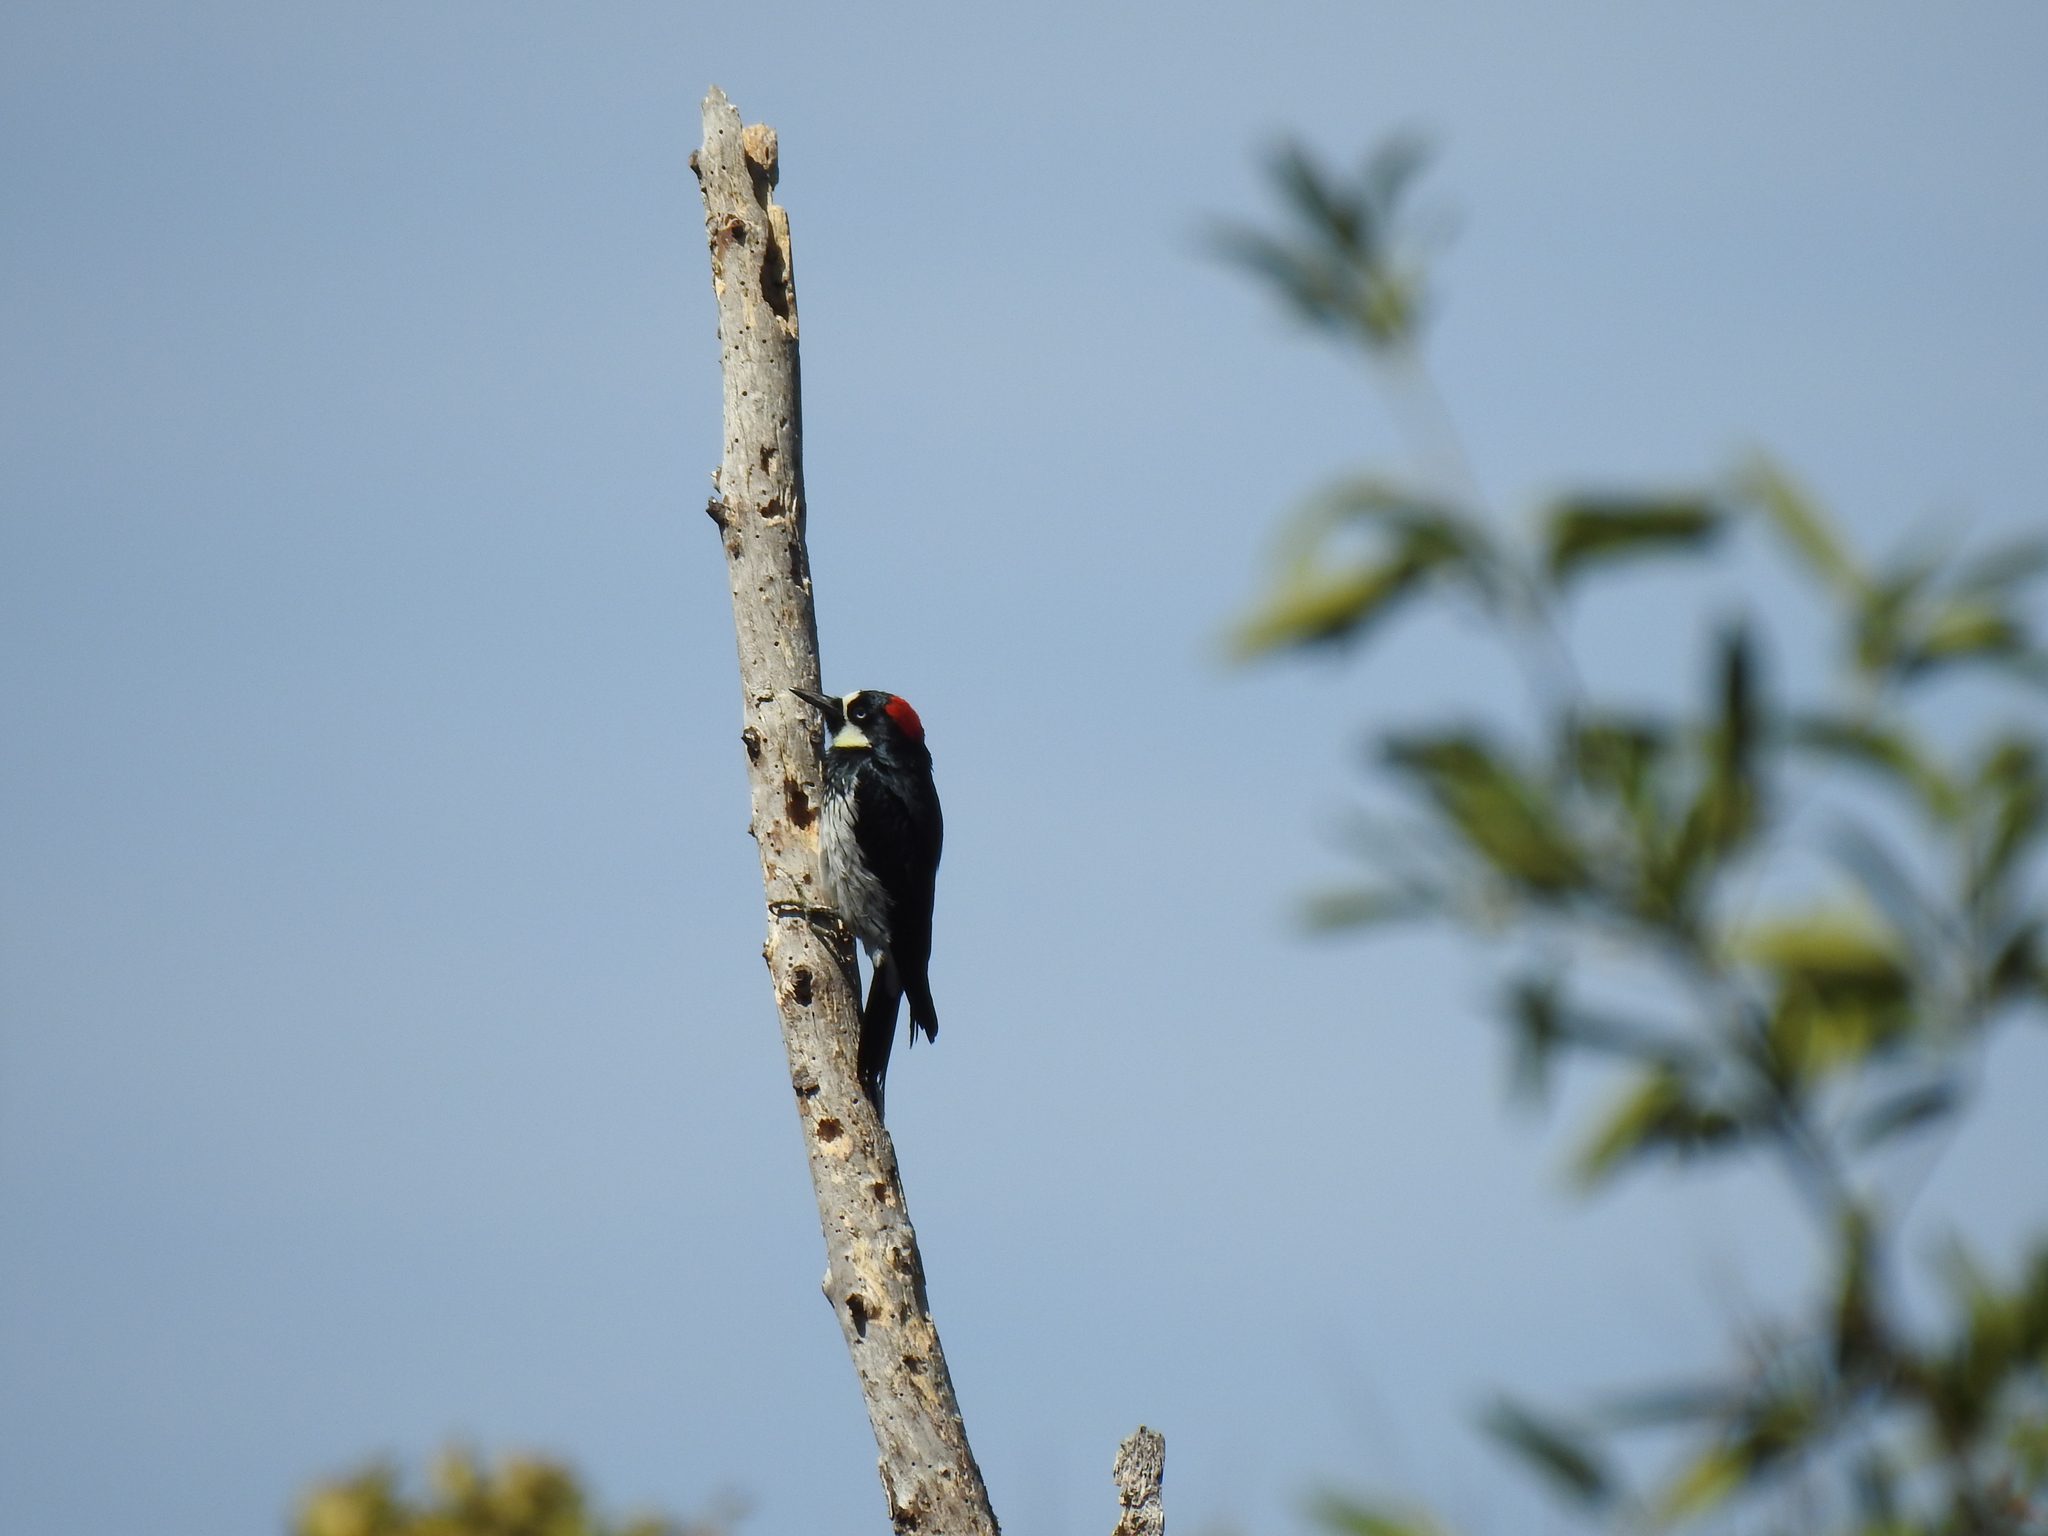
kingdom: Animalia
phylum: Chordata
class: Aves
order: Piciformes
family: Picidae
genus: Melanerpes
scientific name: Melanerpes formicivorus
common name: Acorn woodpecker
